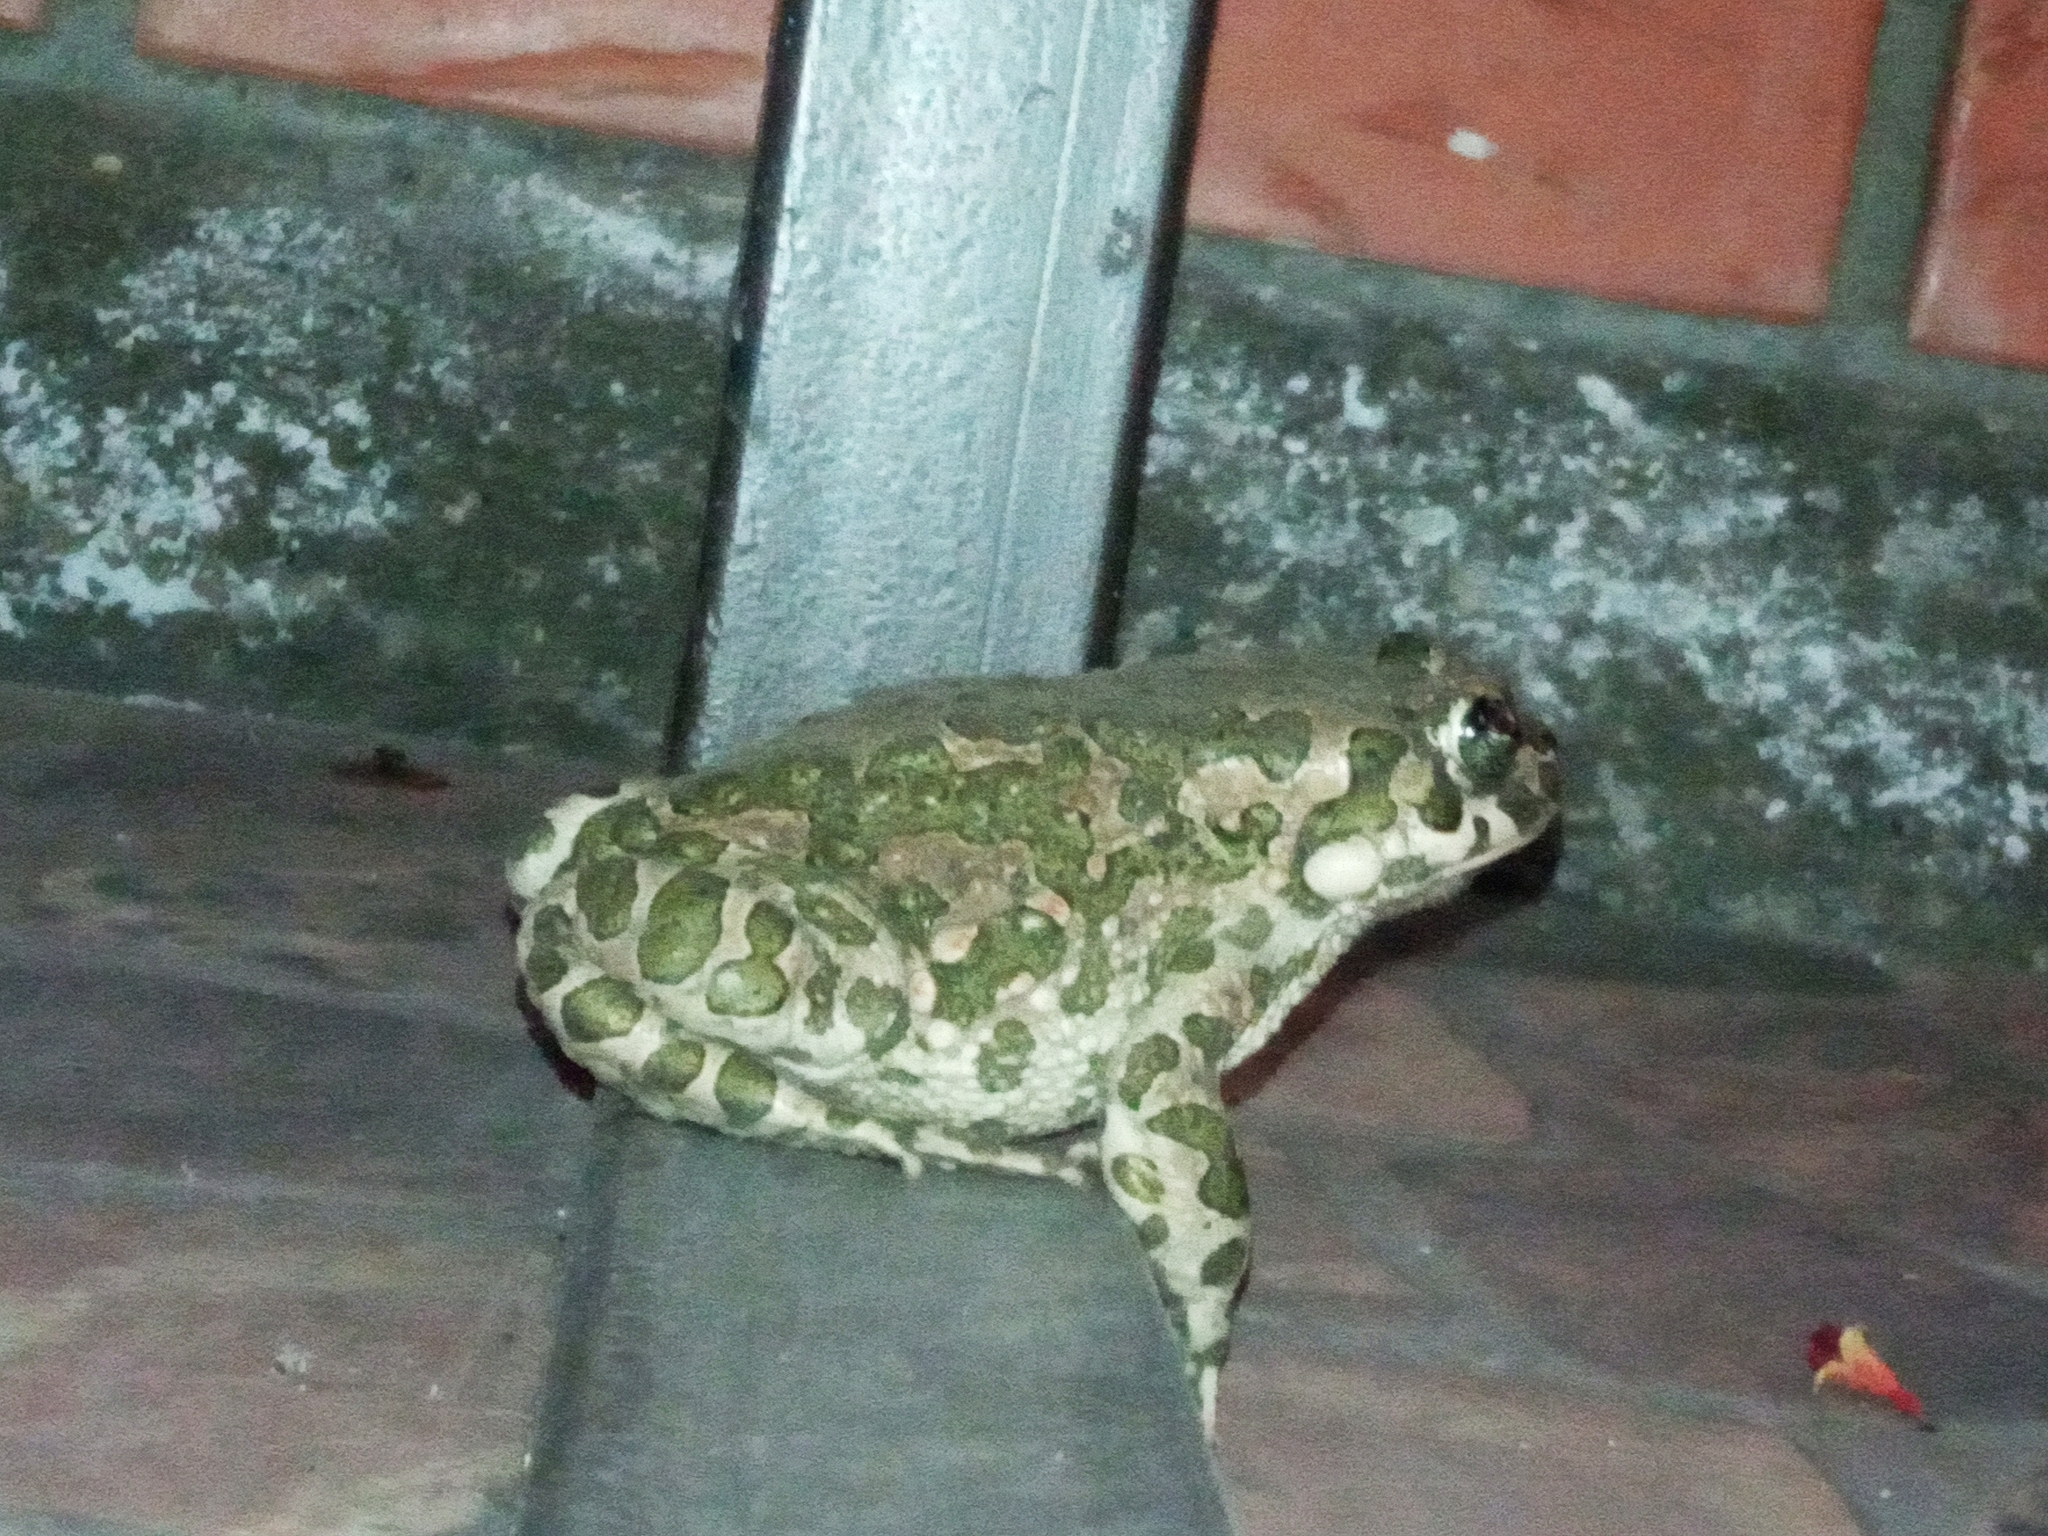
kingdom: Animalia
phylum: Chordata
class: Amphibia
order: Anura
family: Bufonidae
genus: Bufotes
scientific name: Bufotes viridis
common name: European green toad
